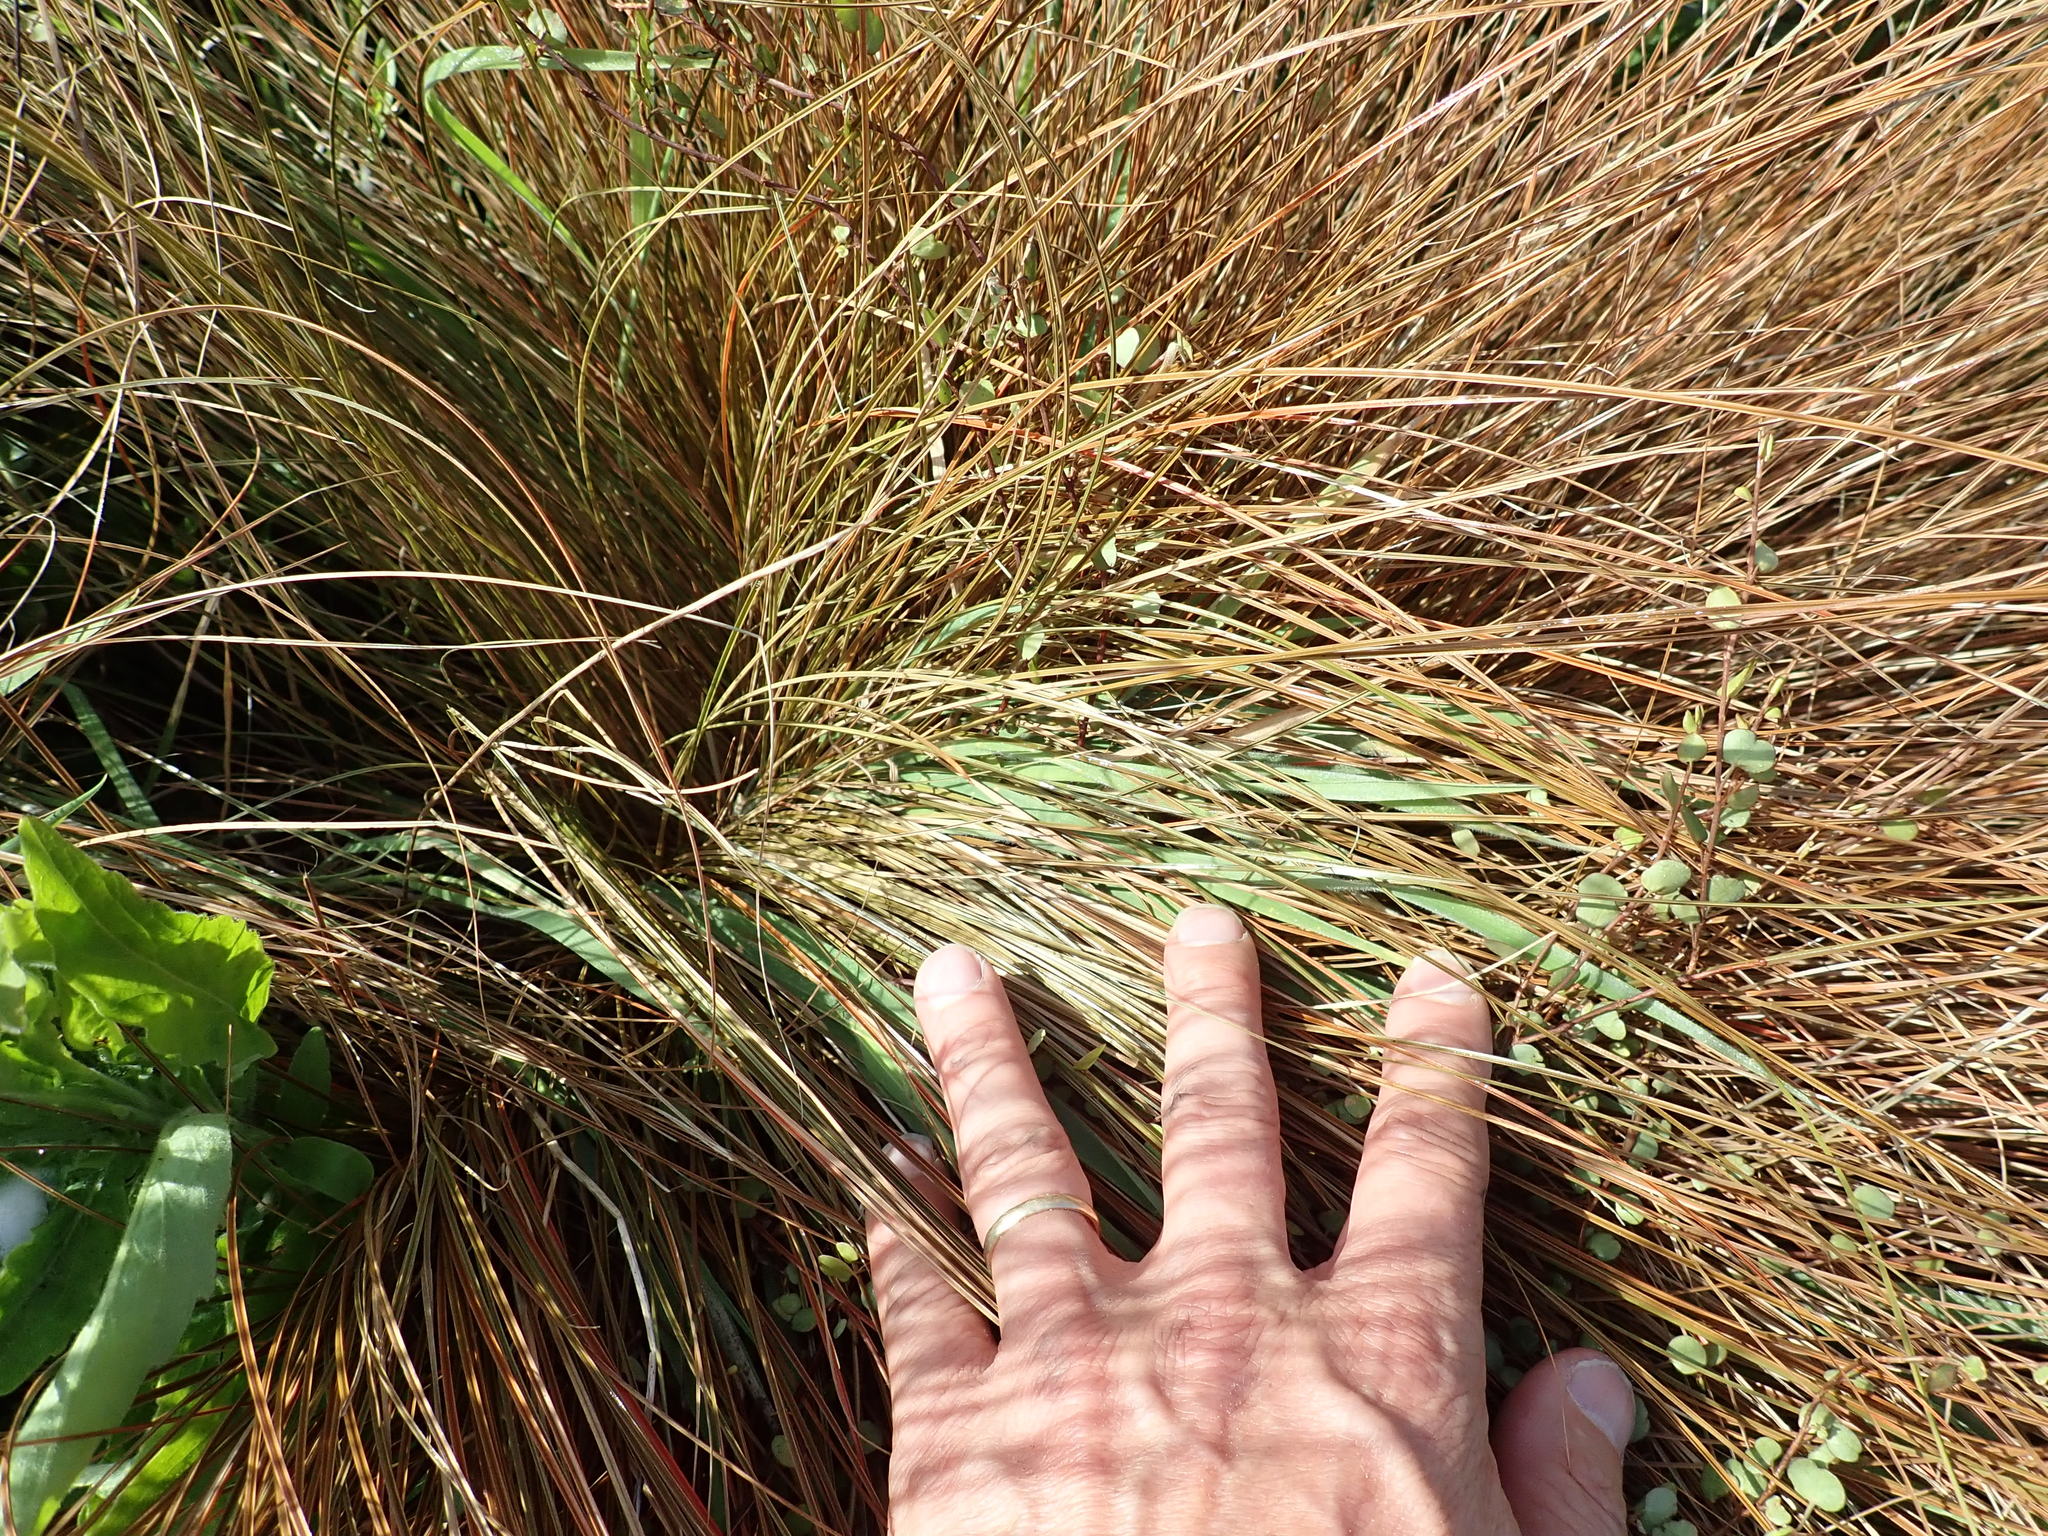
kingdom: Plantae
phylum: Tracheophyta
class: Liliopsida
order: Poales
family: Cyperaceae
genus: Carex
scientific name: Carex testacea
